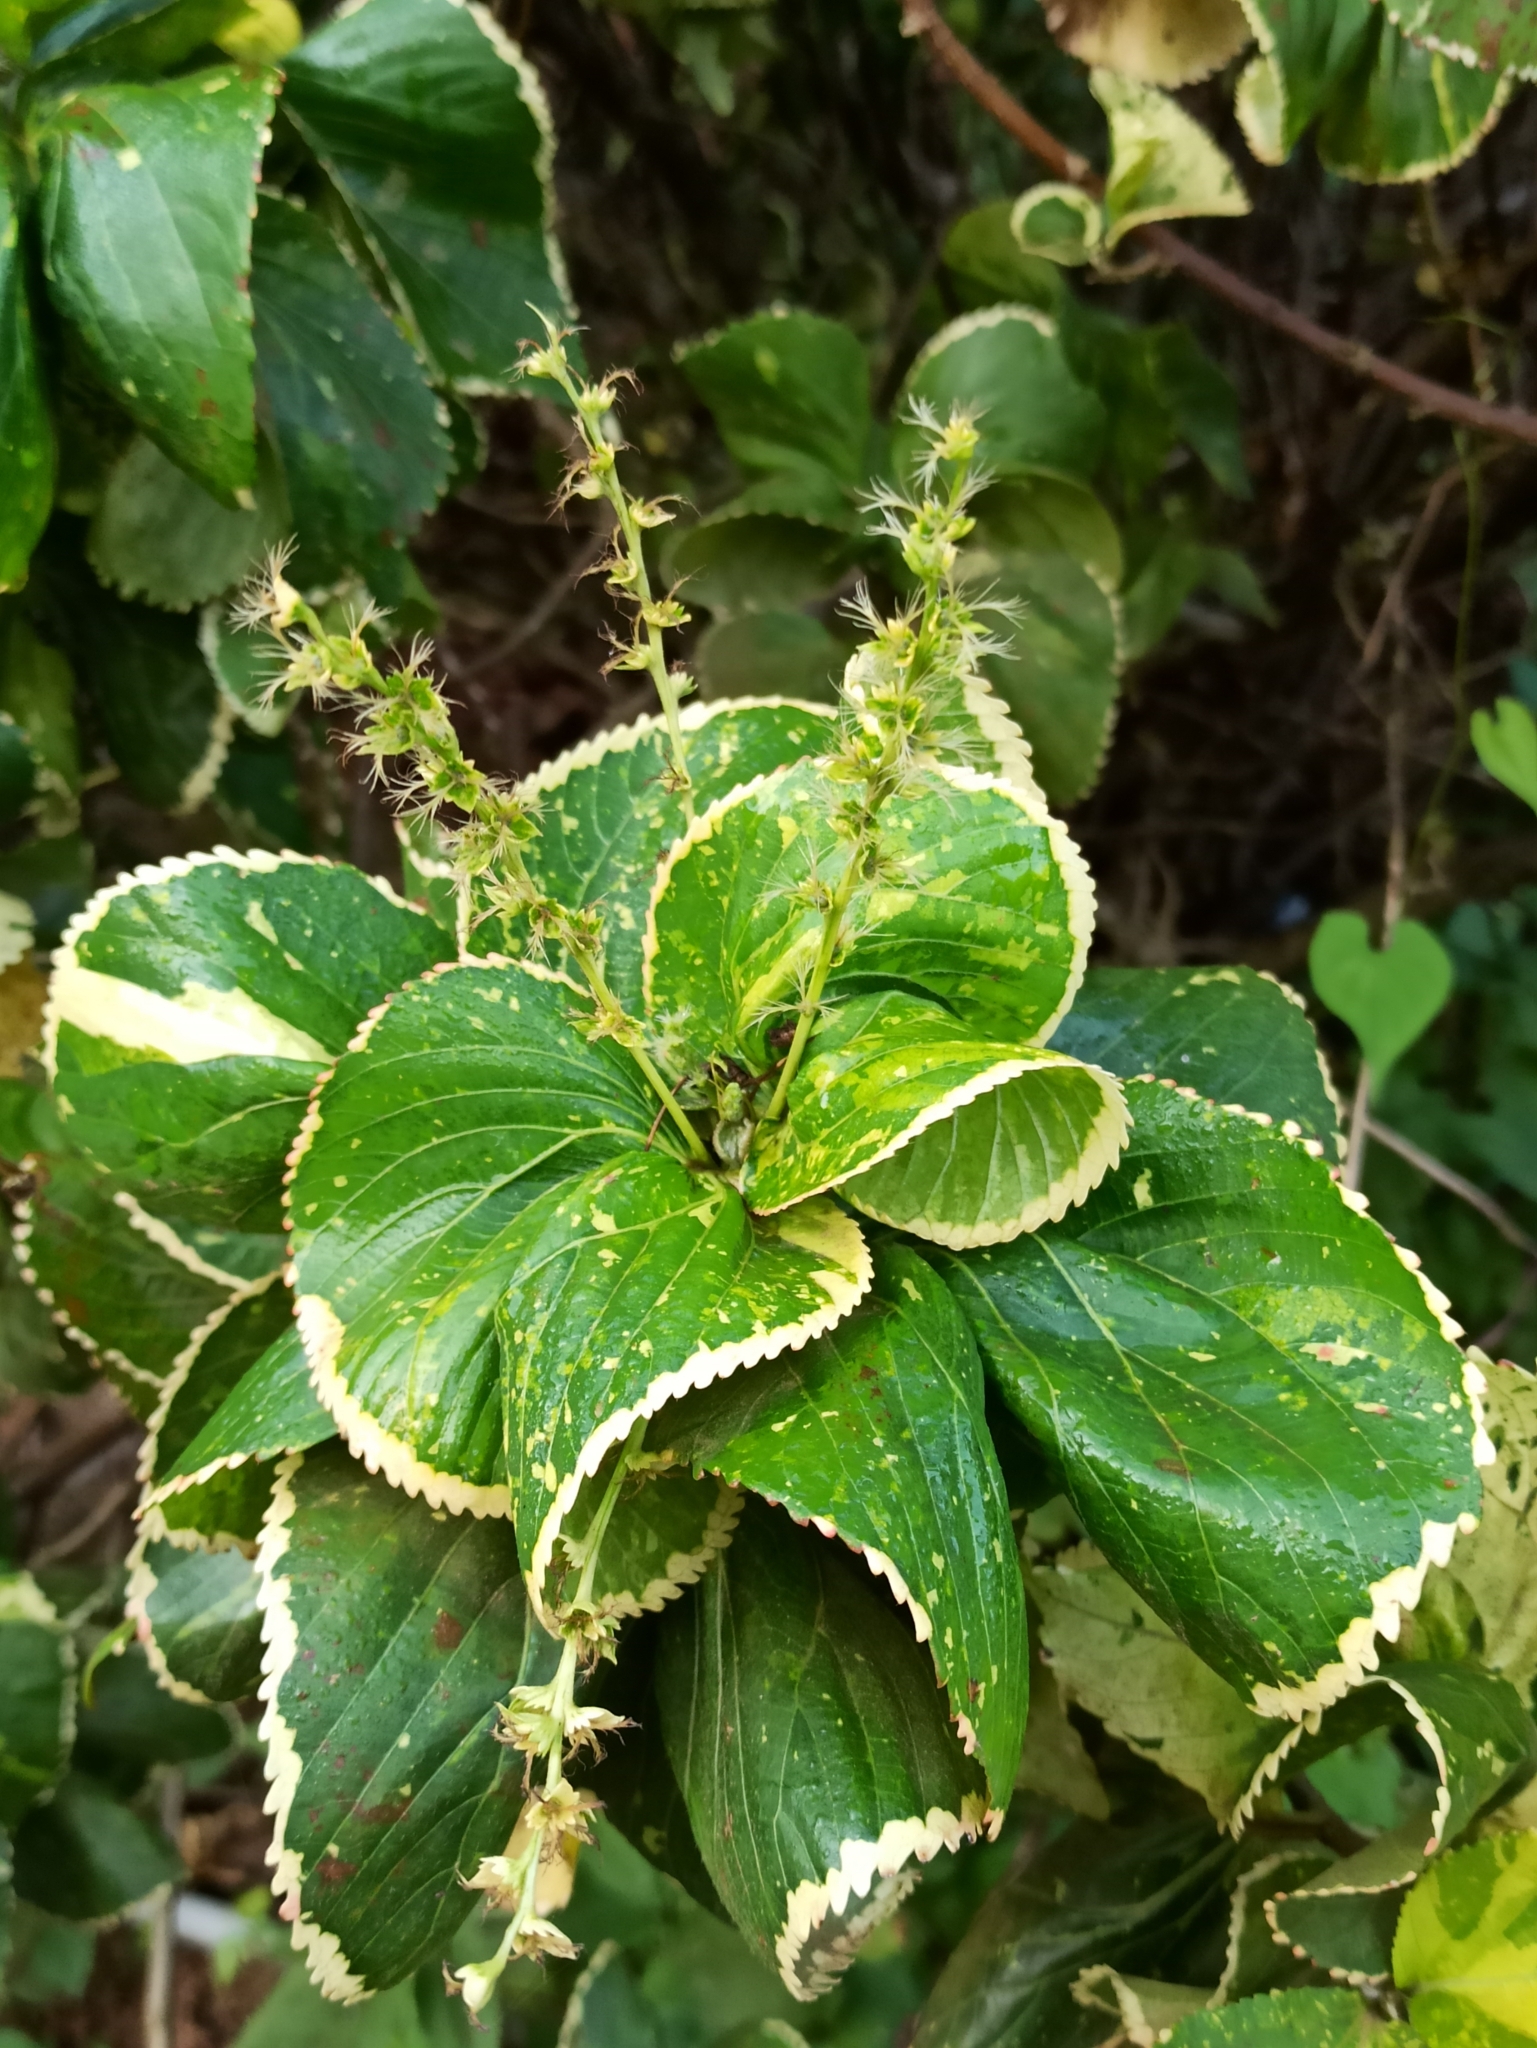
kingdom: Plantae
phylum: Tracheophyta
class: Magnoliopsida
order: Malpighiales
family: Euphorbiaceae
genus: Acalypha
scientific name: Acalypha wilkesiana
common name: Jacob's coat
